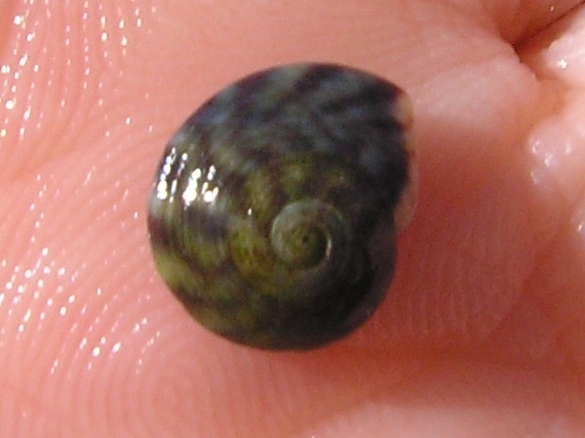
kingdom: Animalia
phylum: Mollusca
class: Gastropoda
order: Trochida
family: Trochidae
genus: Steromphala
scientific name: Steromphala umbilicalis
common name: Flat top shell
